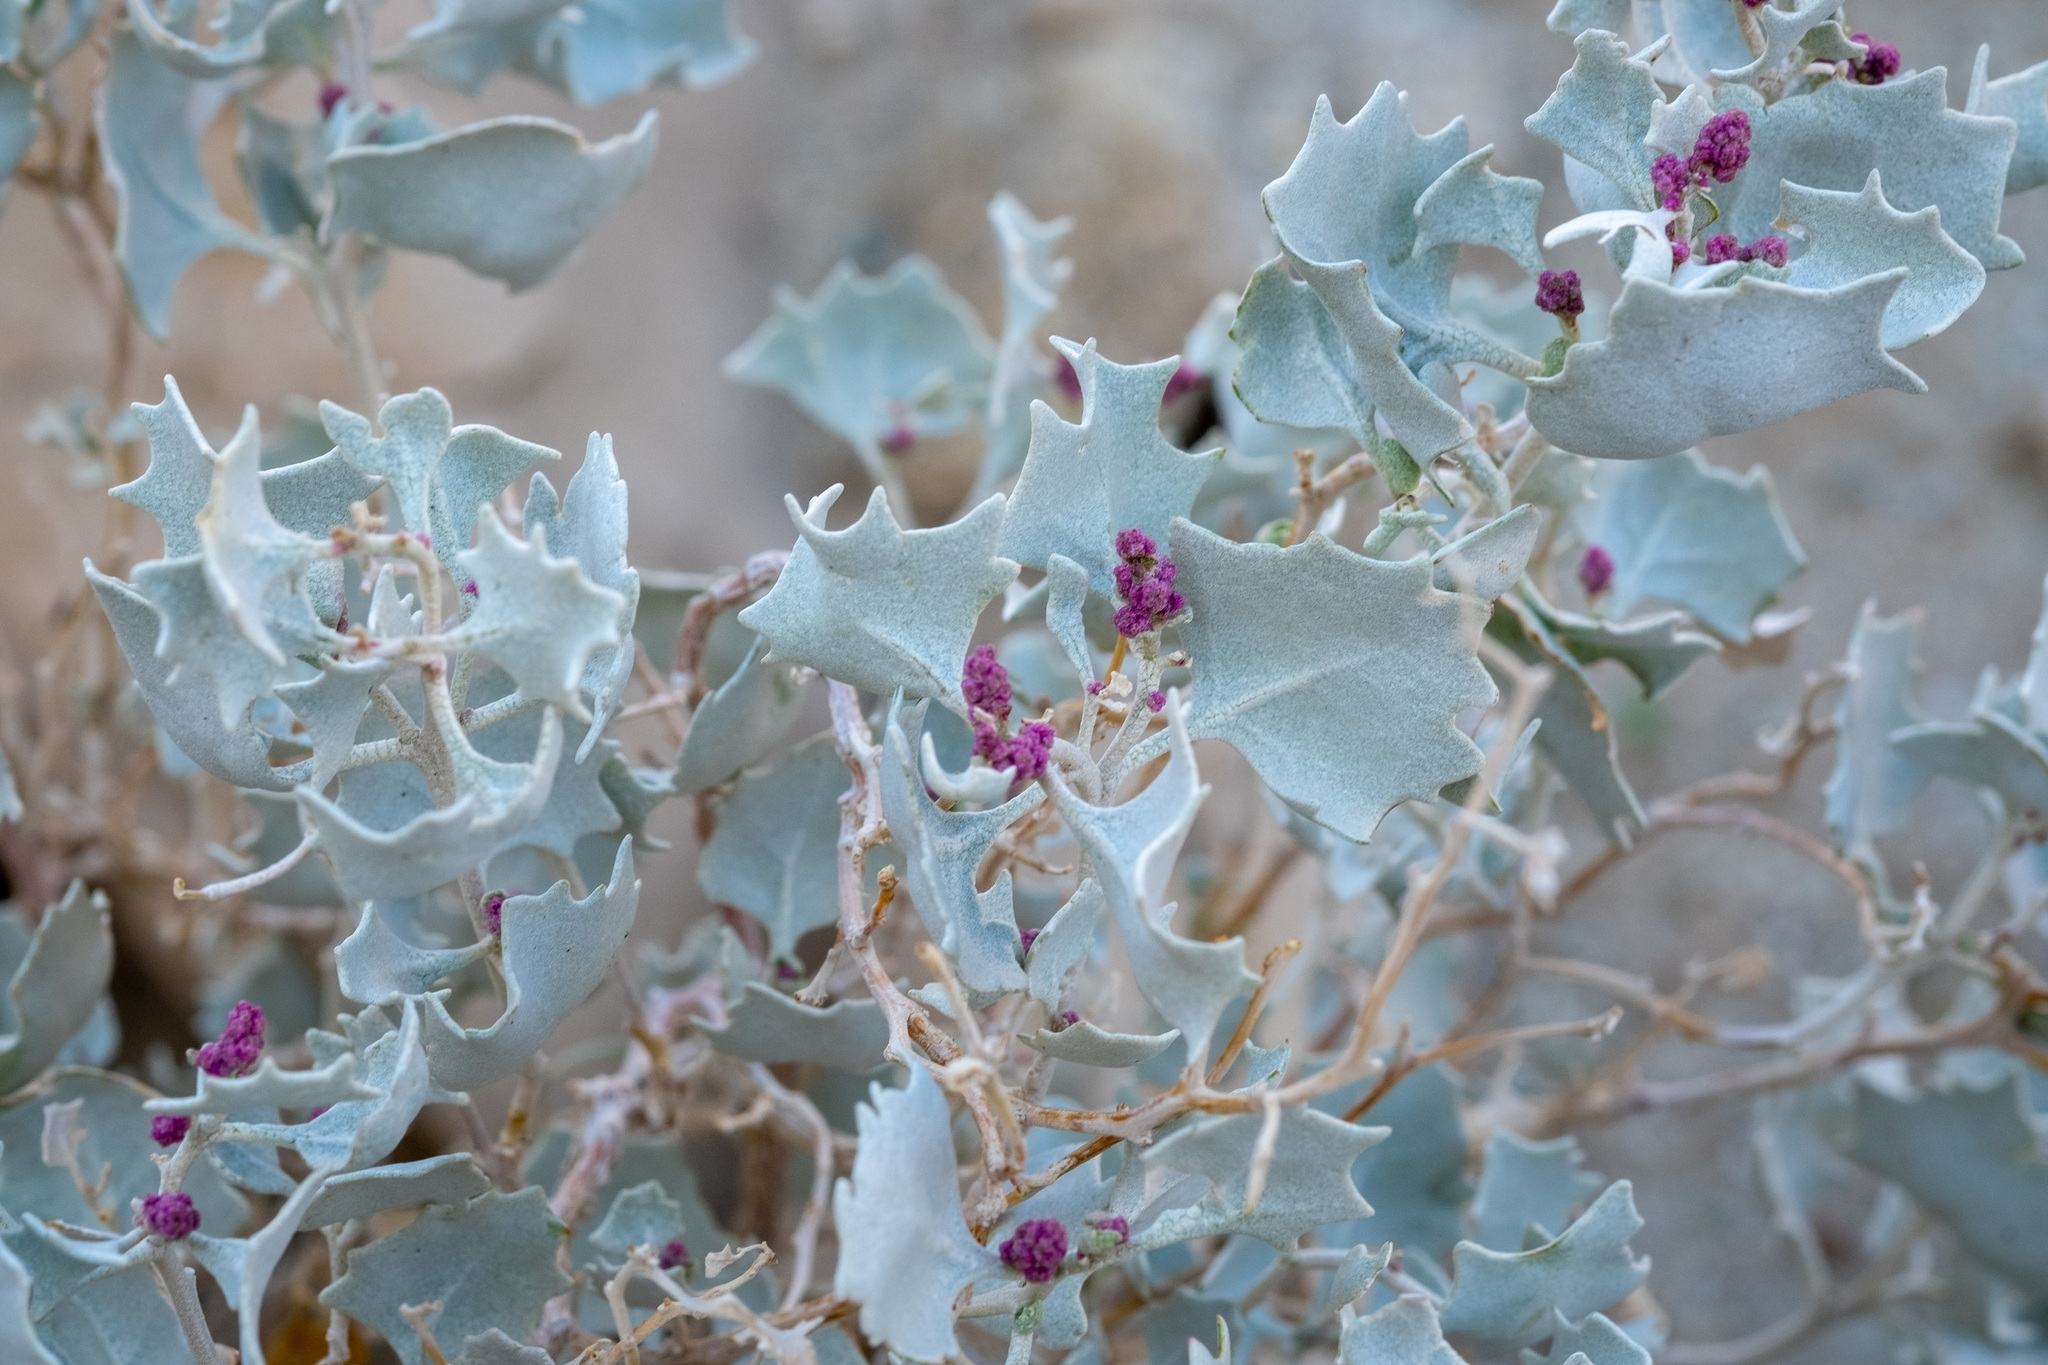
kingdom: Plantae
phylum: Tracheophyta
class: Magnoliopsida
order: Caryophyllales
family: Amaranthaceae
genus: Atriplex
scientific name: Atriplex hymenelytra
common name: Desert-holly
